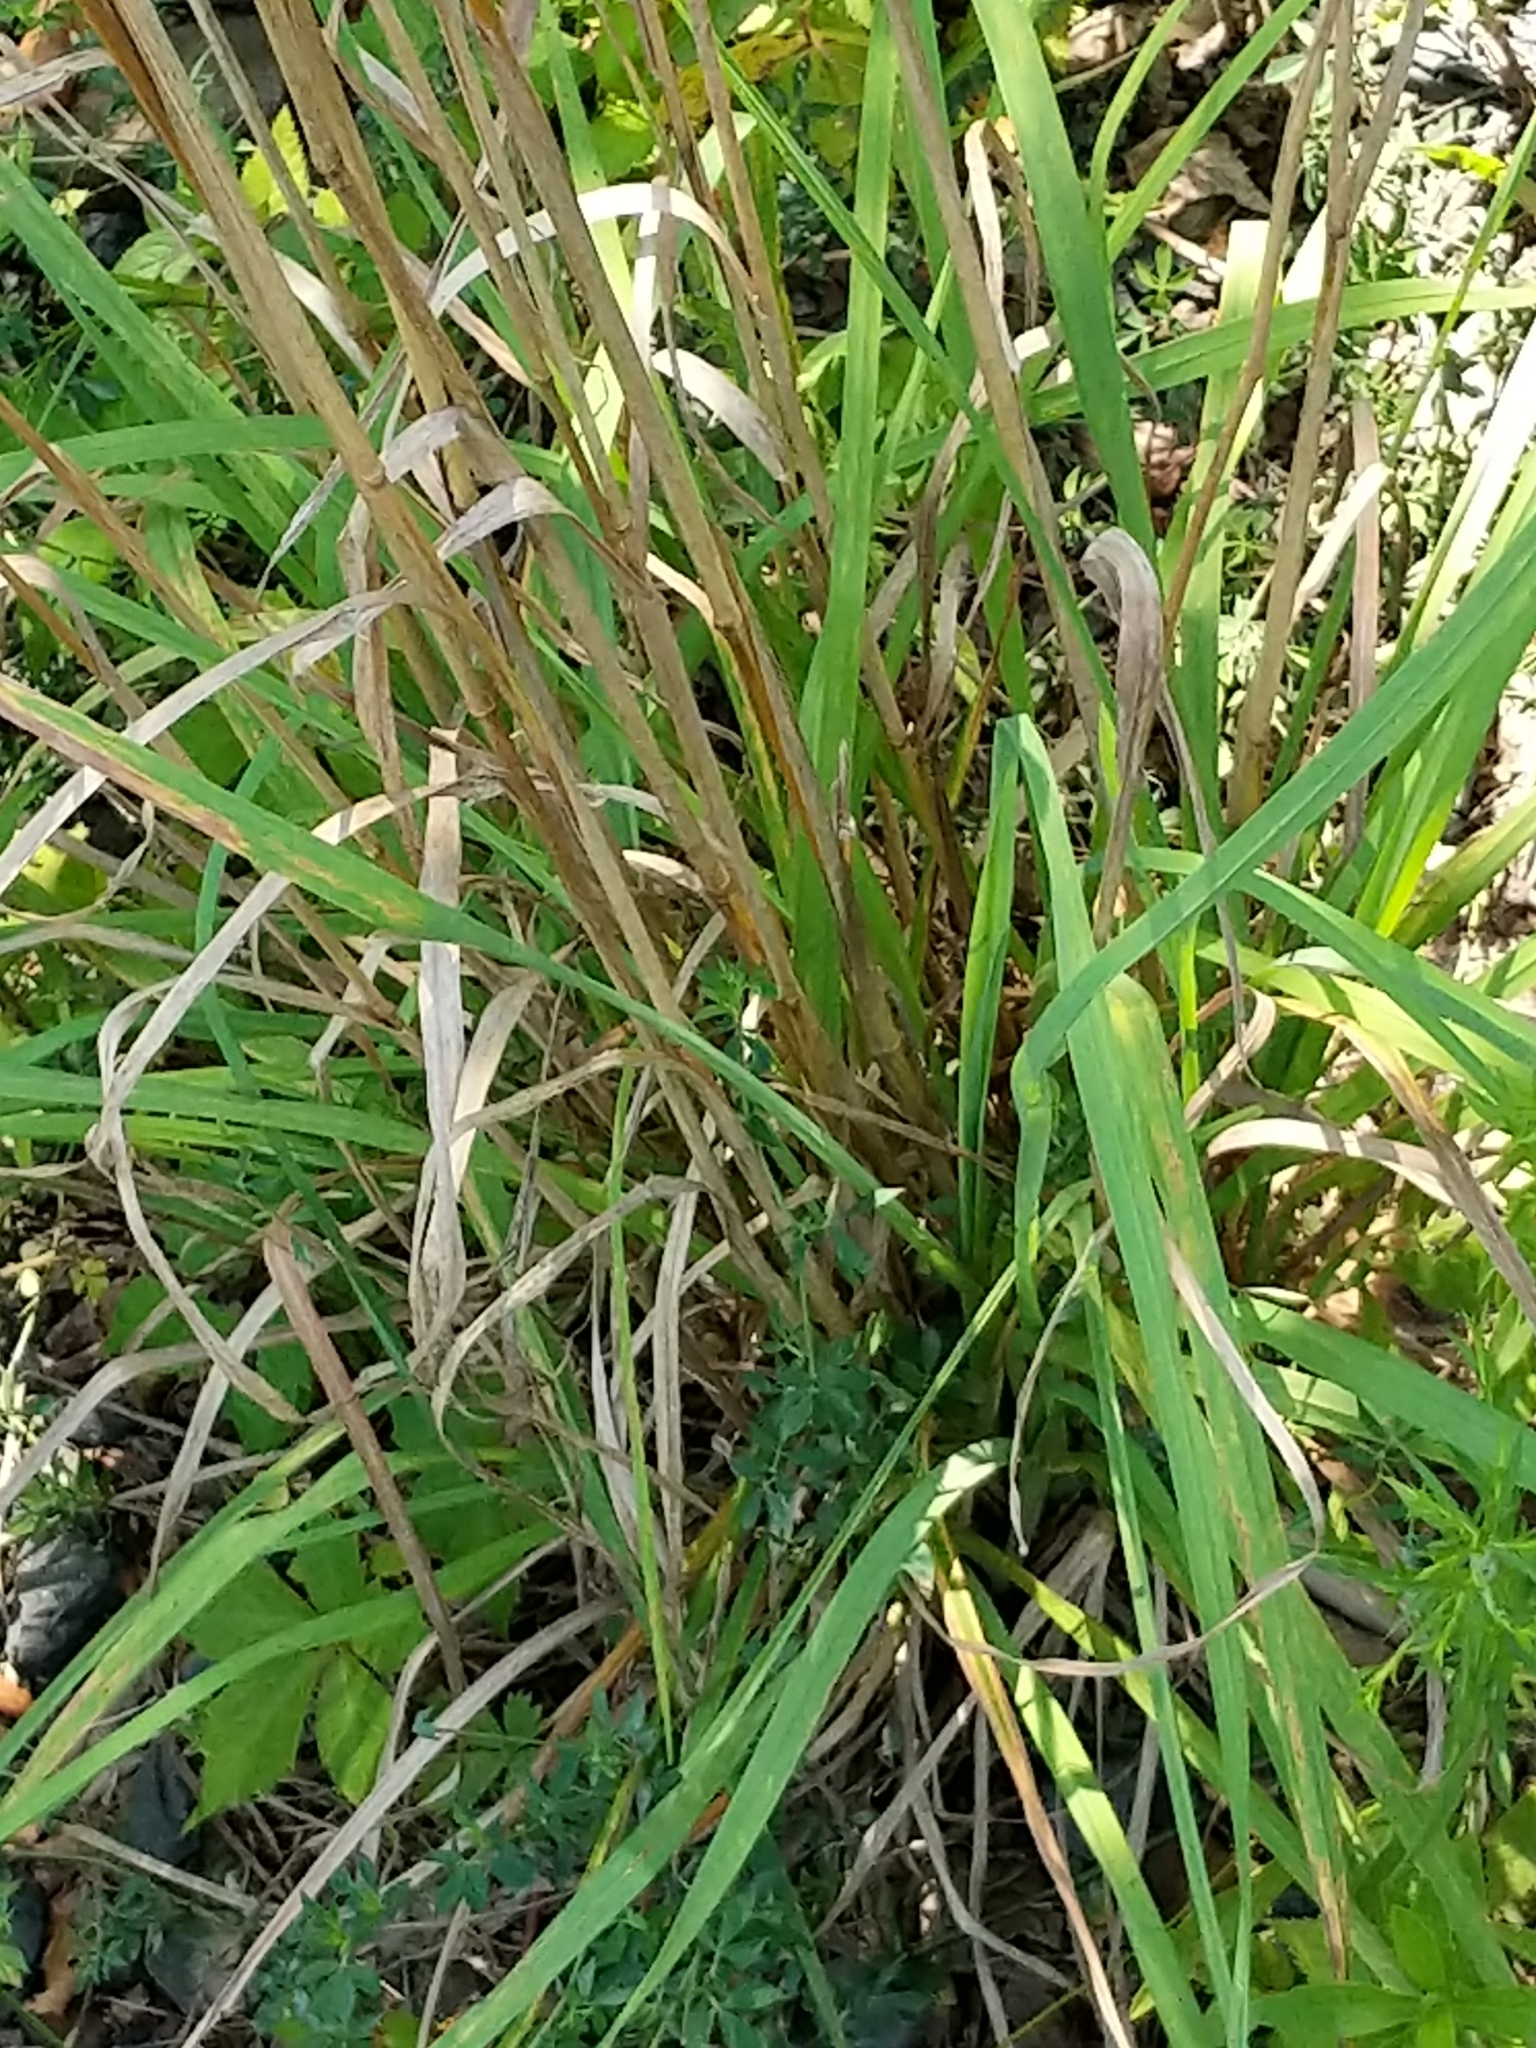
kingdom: Plantae
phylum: Tracheophyta
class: Liliopsida
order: Poales
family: Poaceae
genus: Dactylis
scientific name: Dactylis glomerata
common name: Orchardgrass
